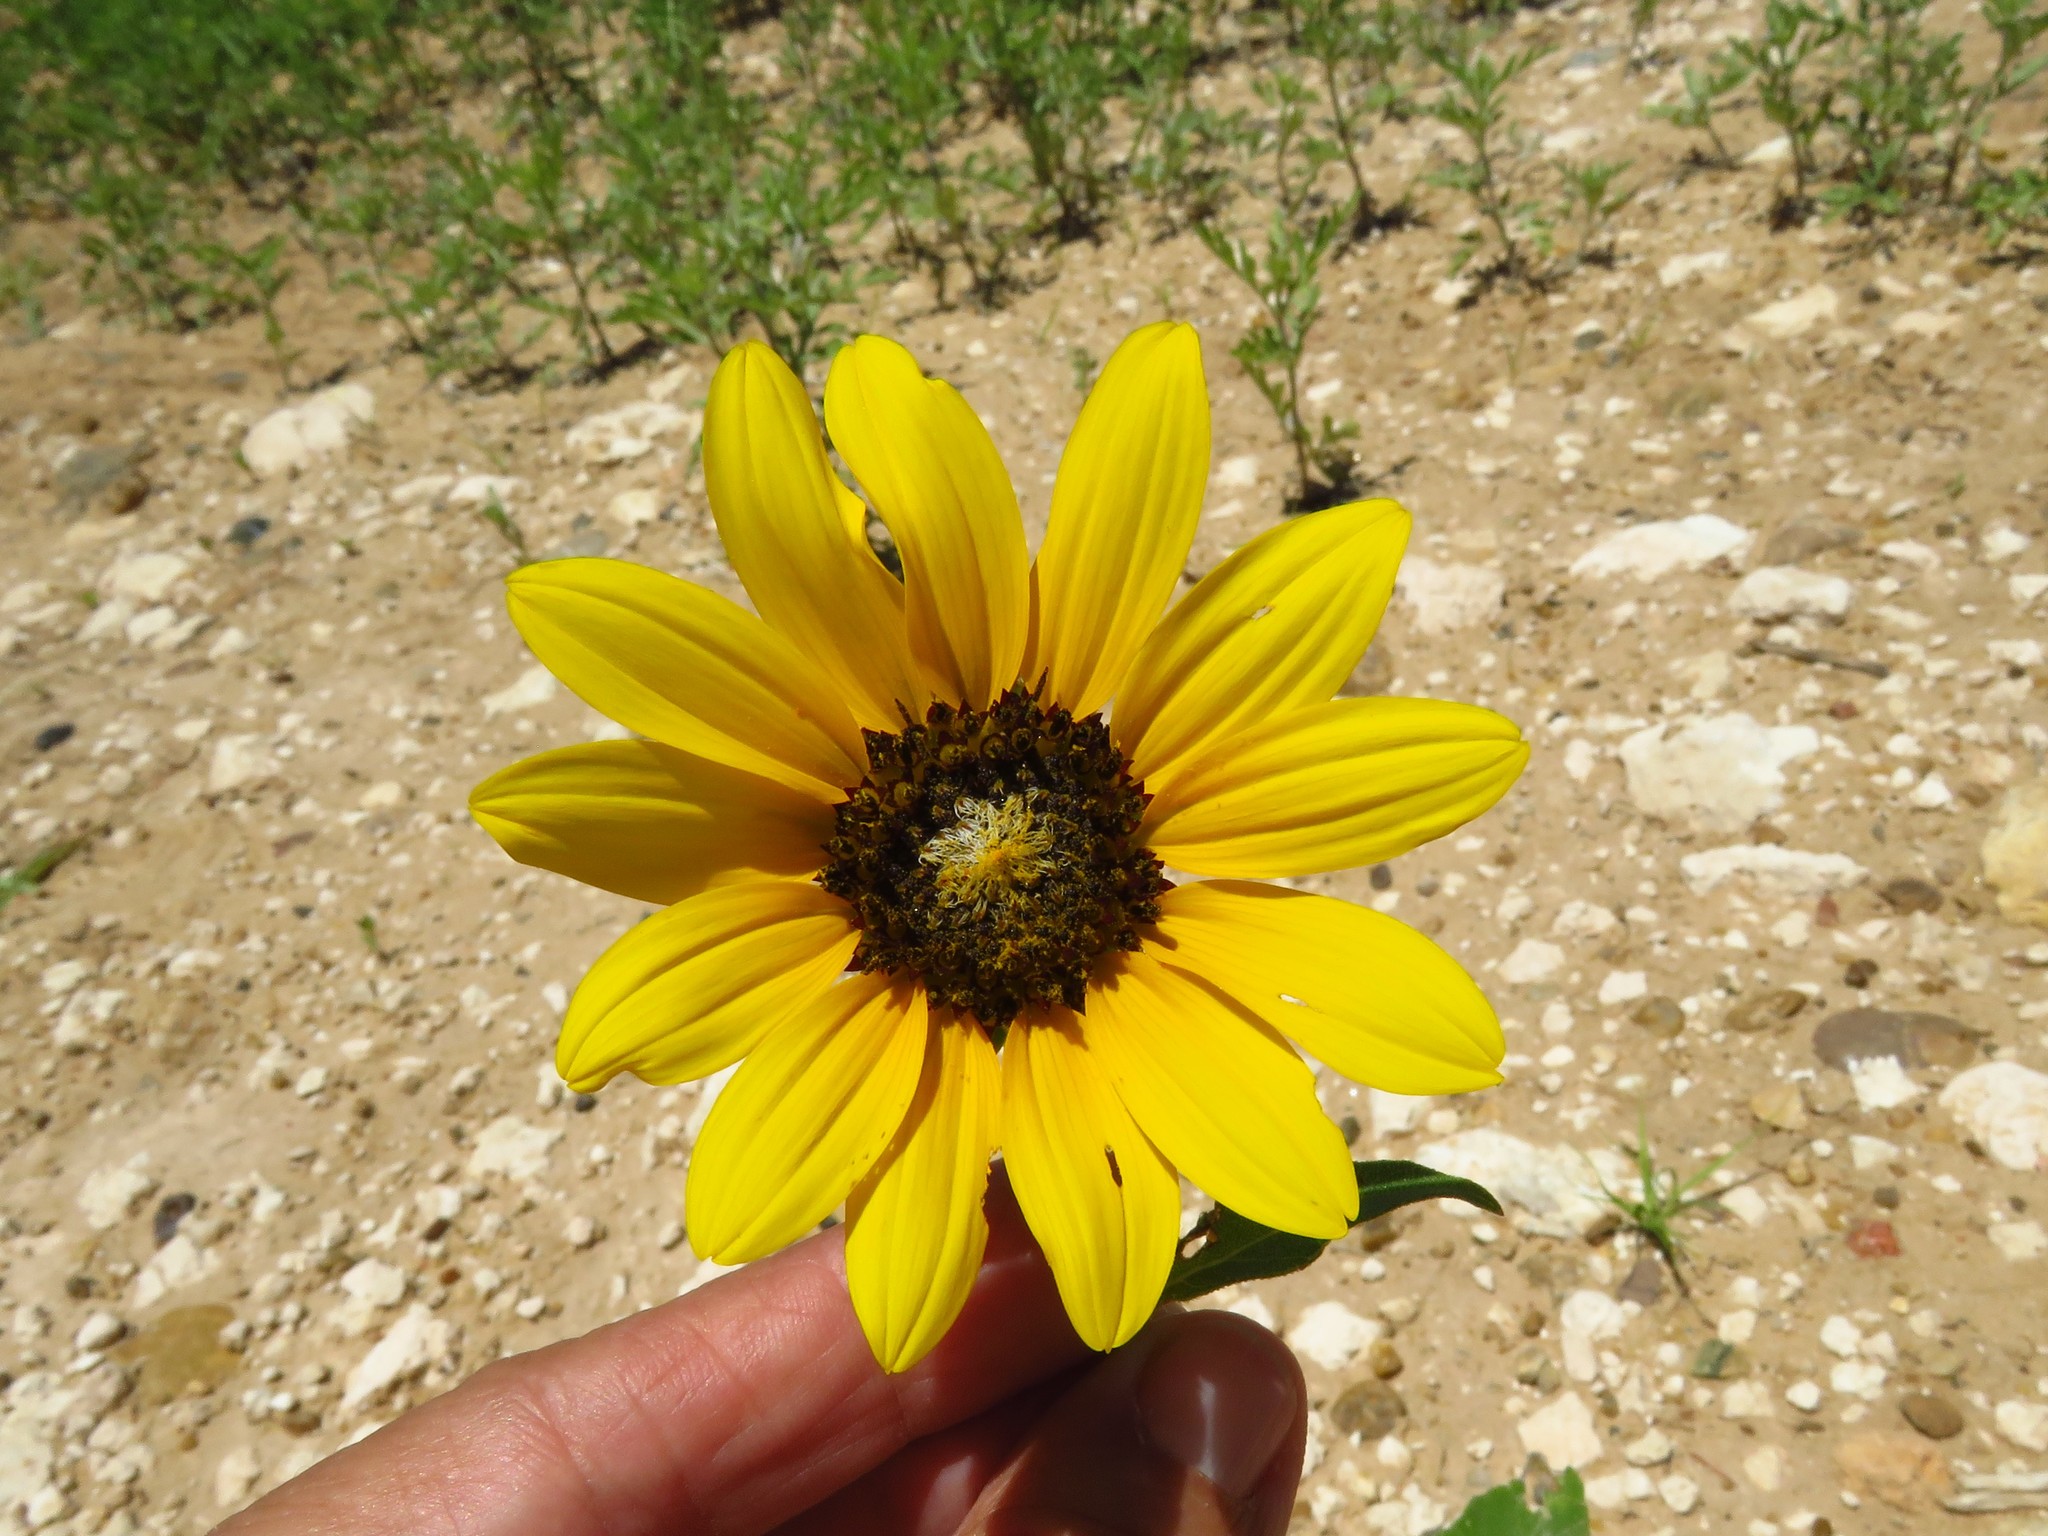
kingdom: Plantae
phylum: Tracheophyta
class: Magnoliopsida
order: Asterales
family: Asteraceae
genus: Helianthus
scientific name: Helianthus petiolaris
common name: Lesser sunflower
